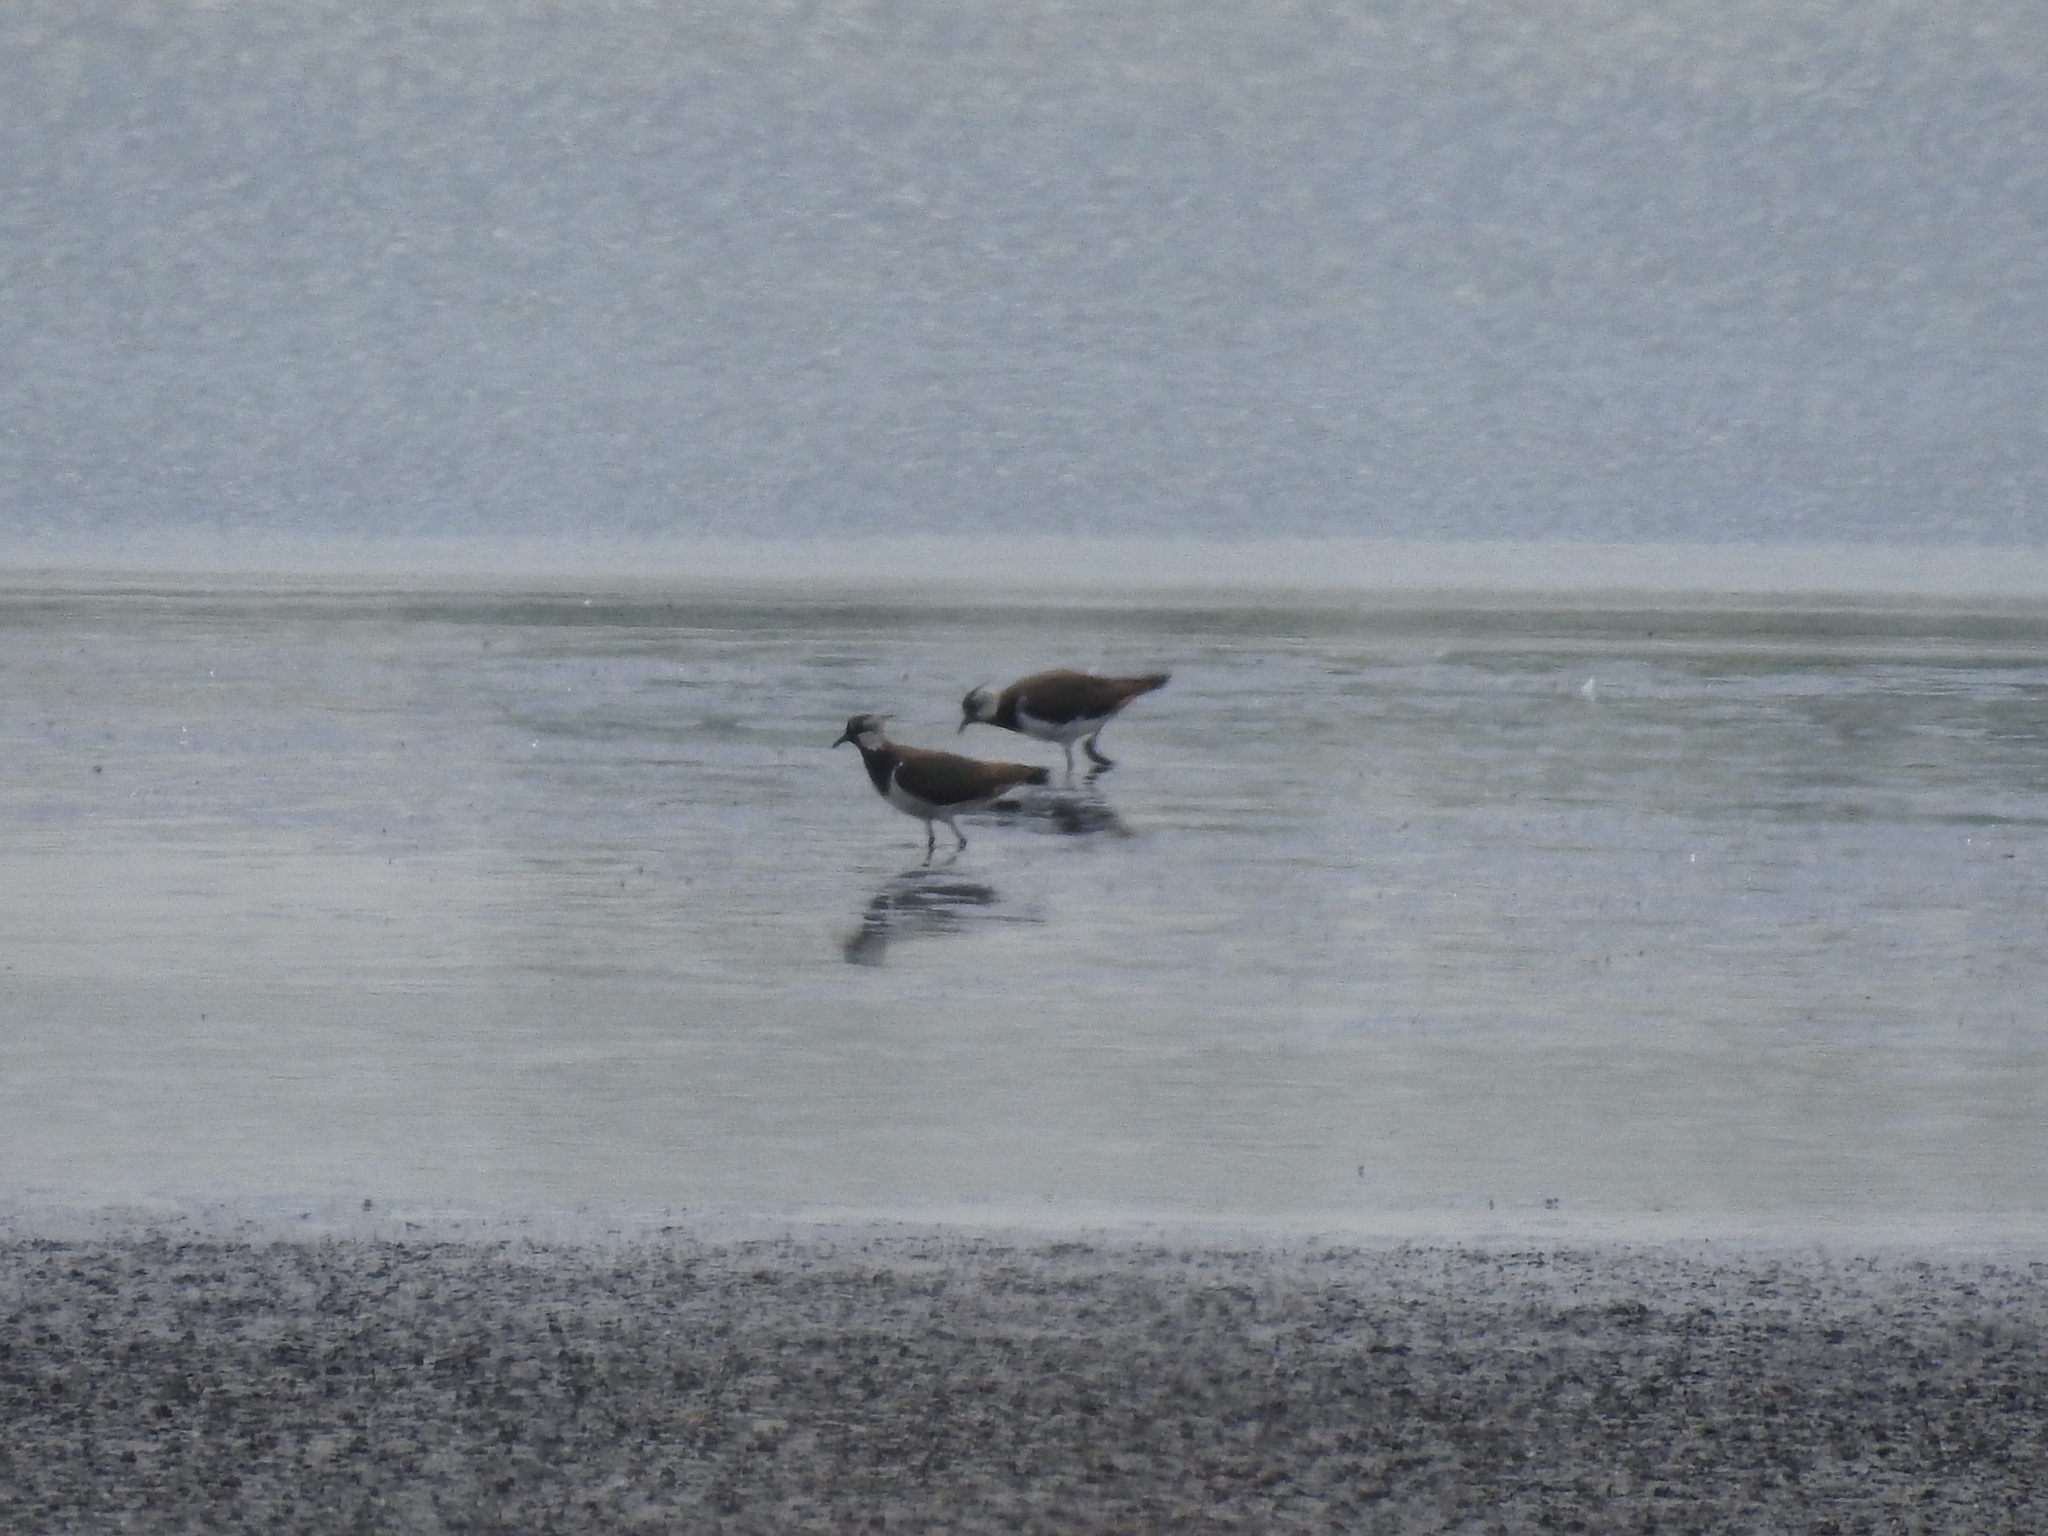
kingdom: Animalia
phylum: Chordata
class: Aves
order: Charadriiformes
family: Charadriidae
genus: Vanellus
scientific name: Vanellus vanellus
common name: Northern lapwing
